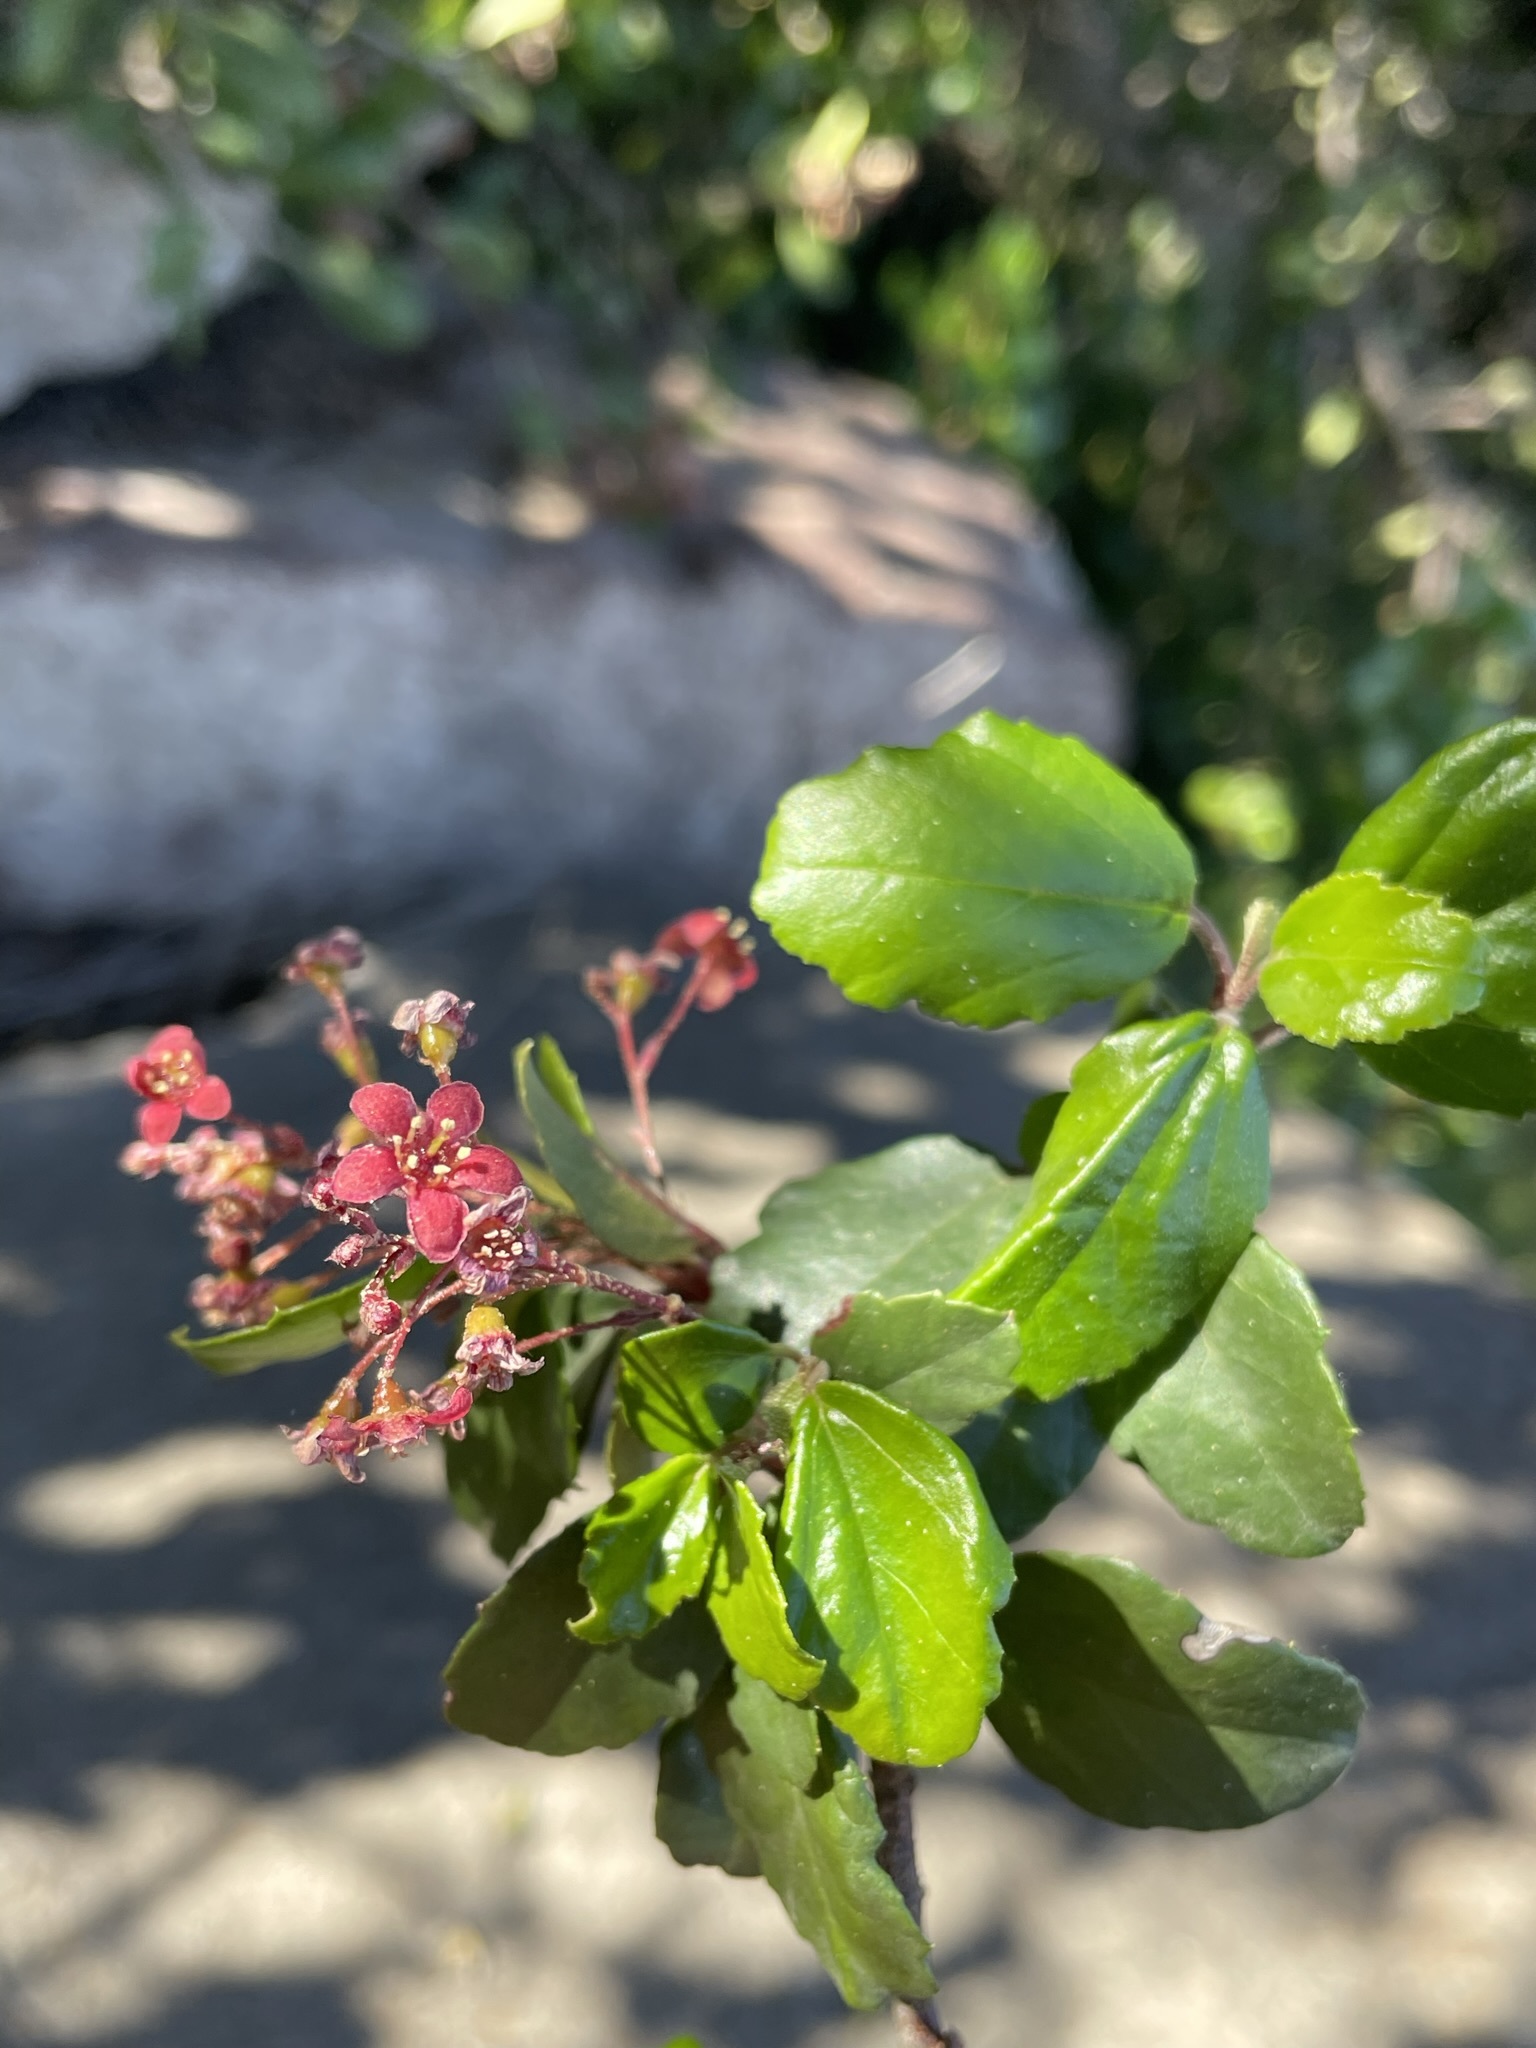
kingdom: Plantae
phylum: Tracheophyta
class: Magnoliopsida
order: Saxifragales
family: Grossulariaceae
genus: Ribes
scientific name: Ribes viburnifolium
